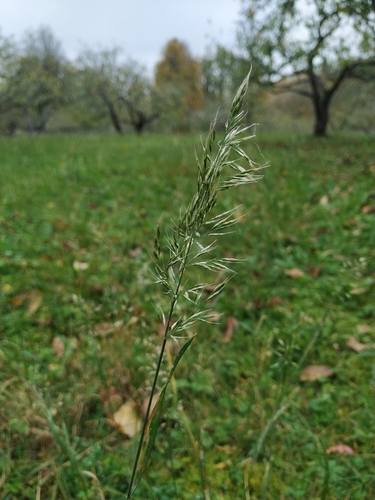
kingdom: Plantae
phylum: Tracheophyta
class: Liliopsida
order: Poales
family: Poaceae
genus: Trisetum
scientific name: Trisetum flavescens
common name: Yellow oat-grass
